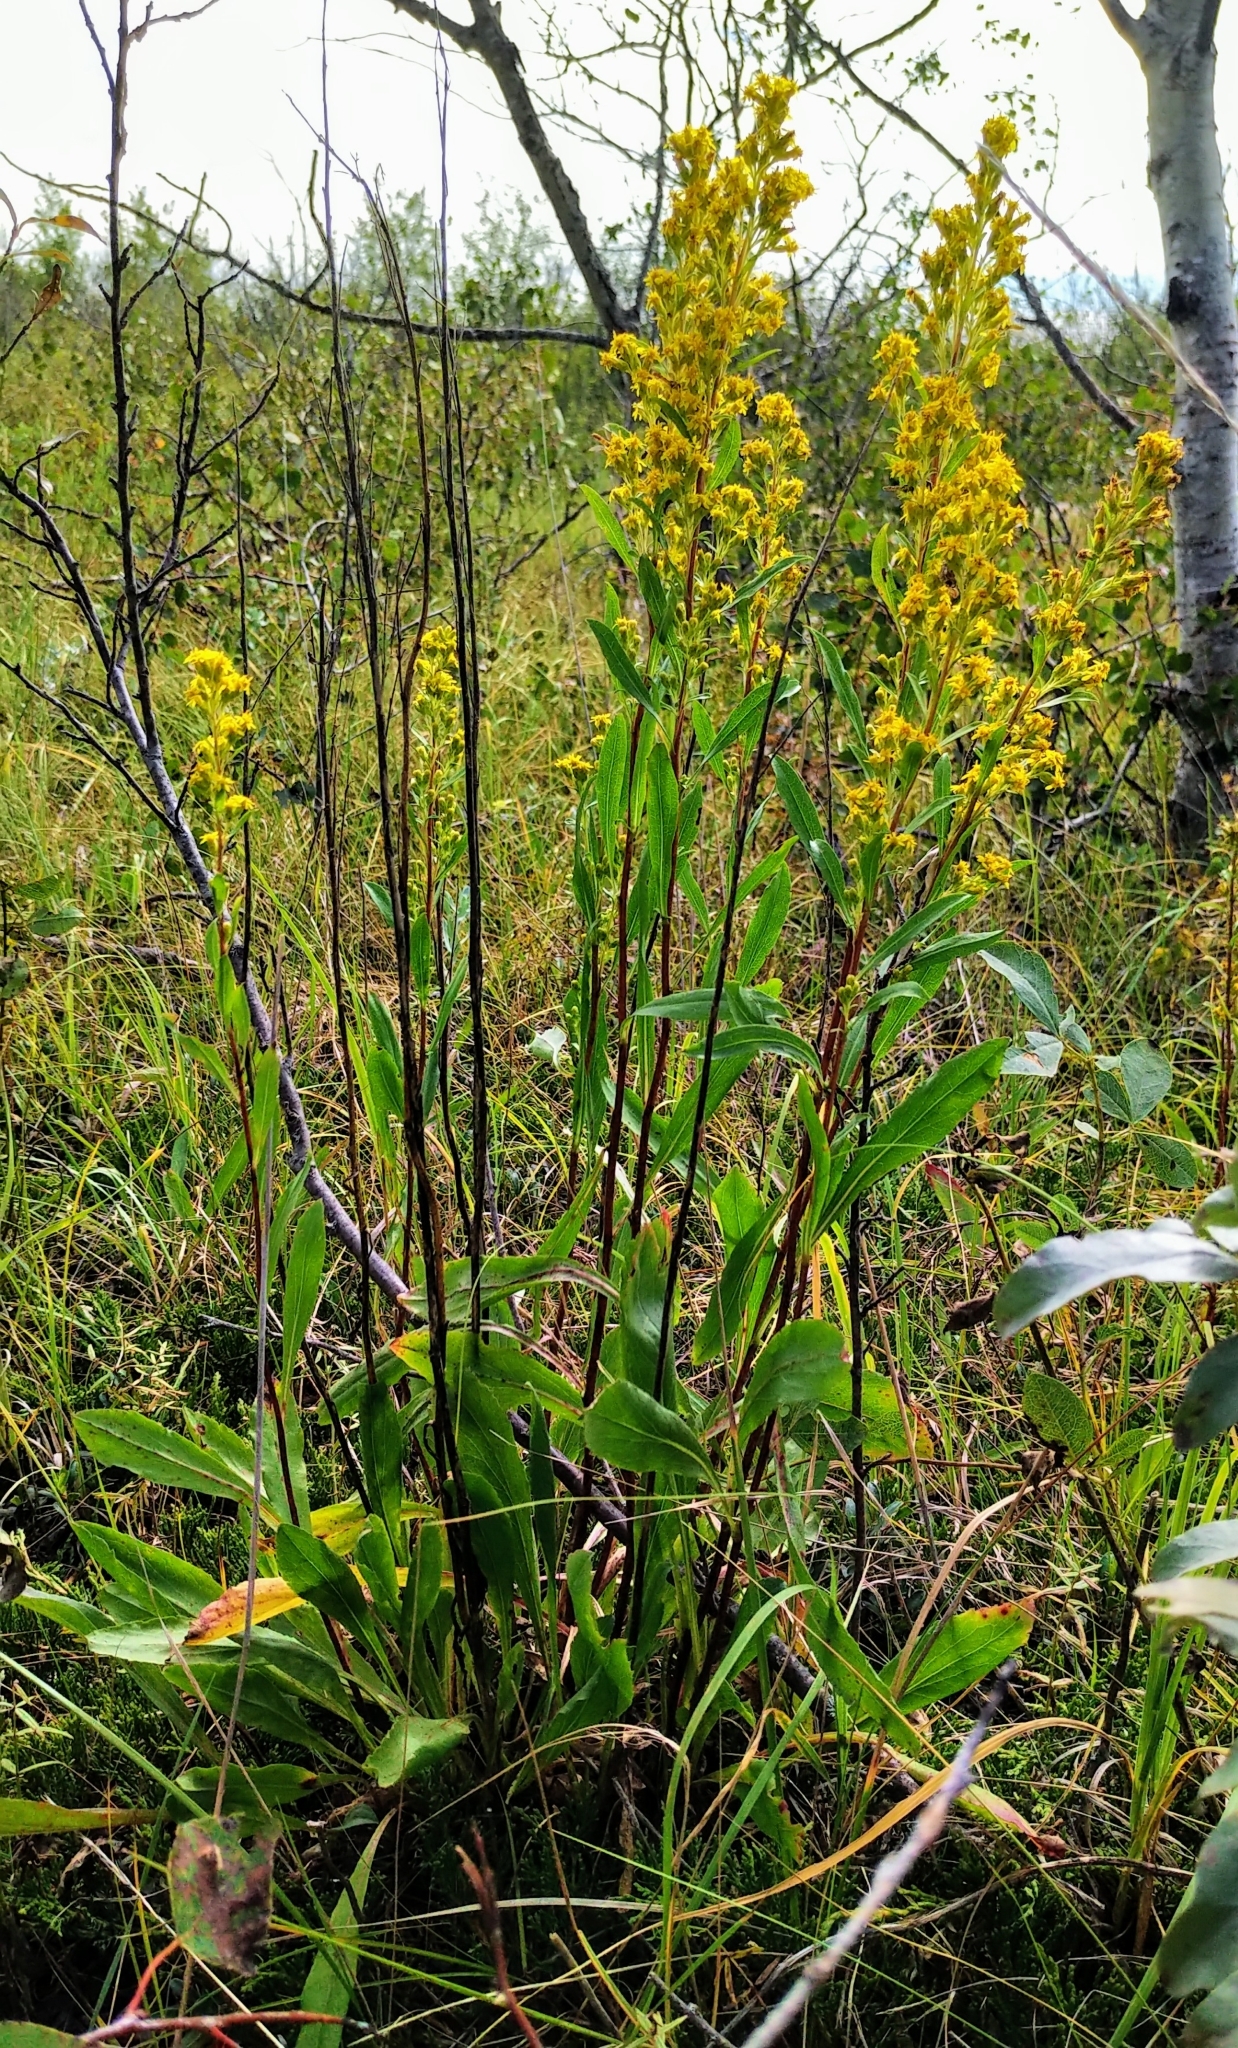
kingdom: Plantae
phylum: Tracheophyta
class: Magnoliopsida
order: Asterales
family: Asteraceae
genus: Solidago
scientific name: Solidago missouriensis
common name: Prairie goldenrod
